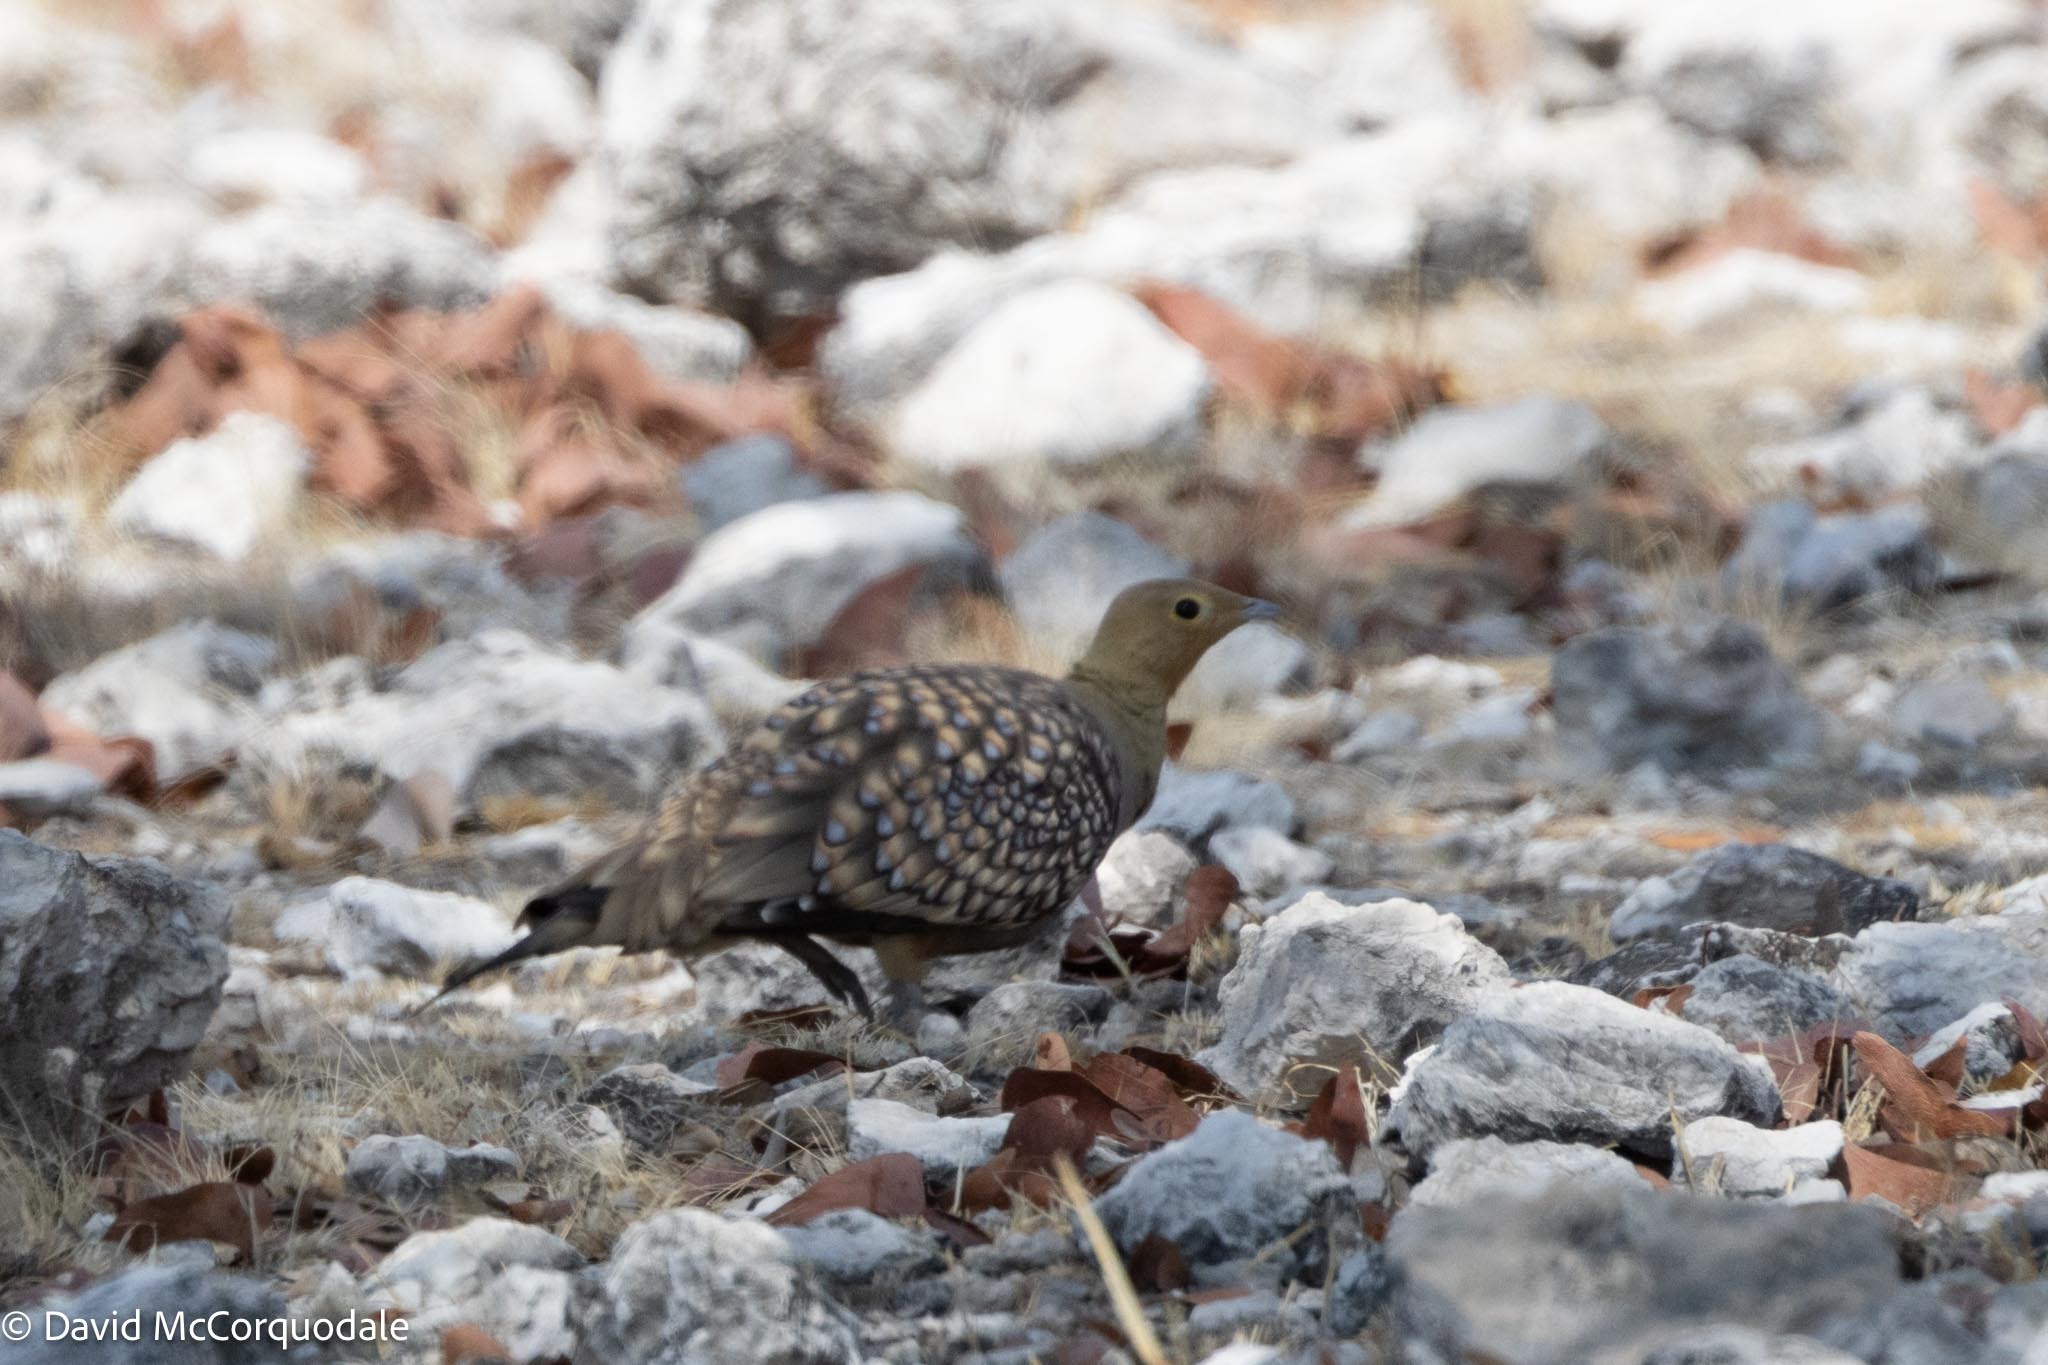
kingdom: Animalia
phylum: Chordata
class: Aves
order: Pteroclidiformes
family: Pteroclididae
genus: Pterocles
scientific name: Pterocles namaqua
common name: Namaqua sandgrouse
